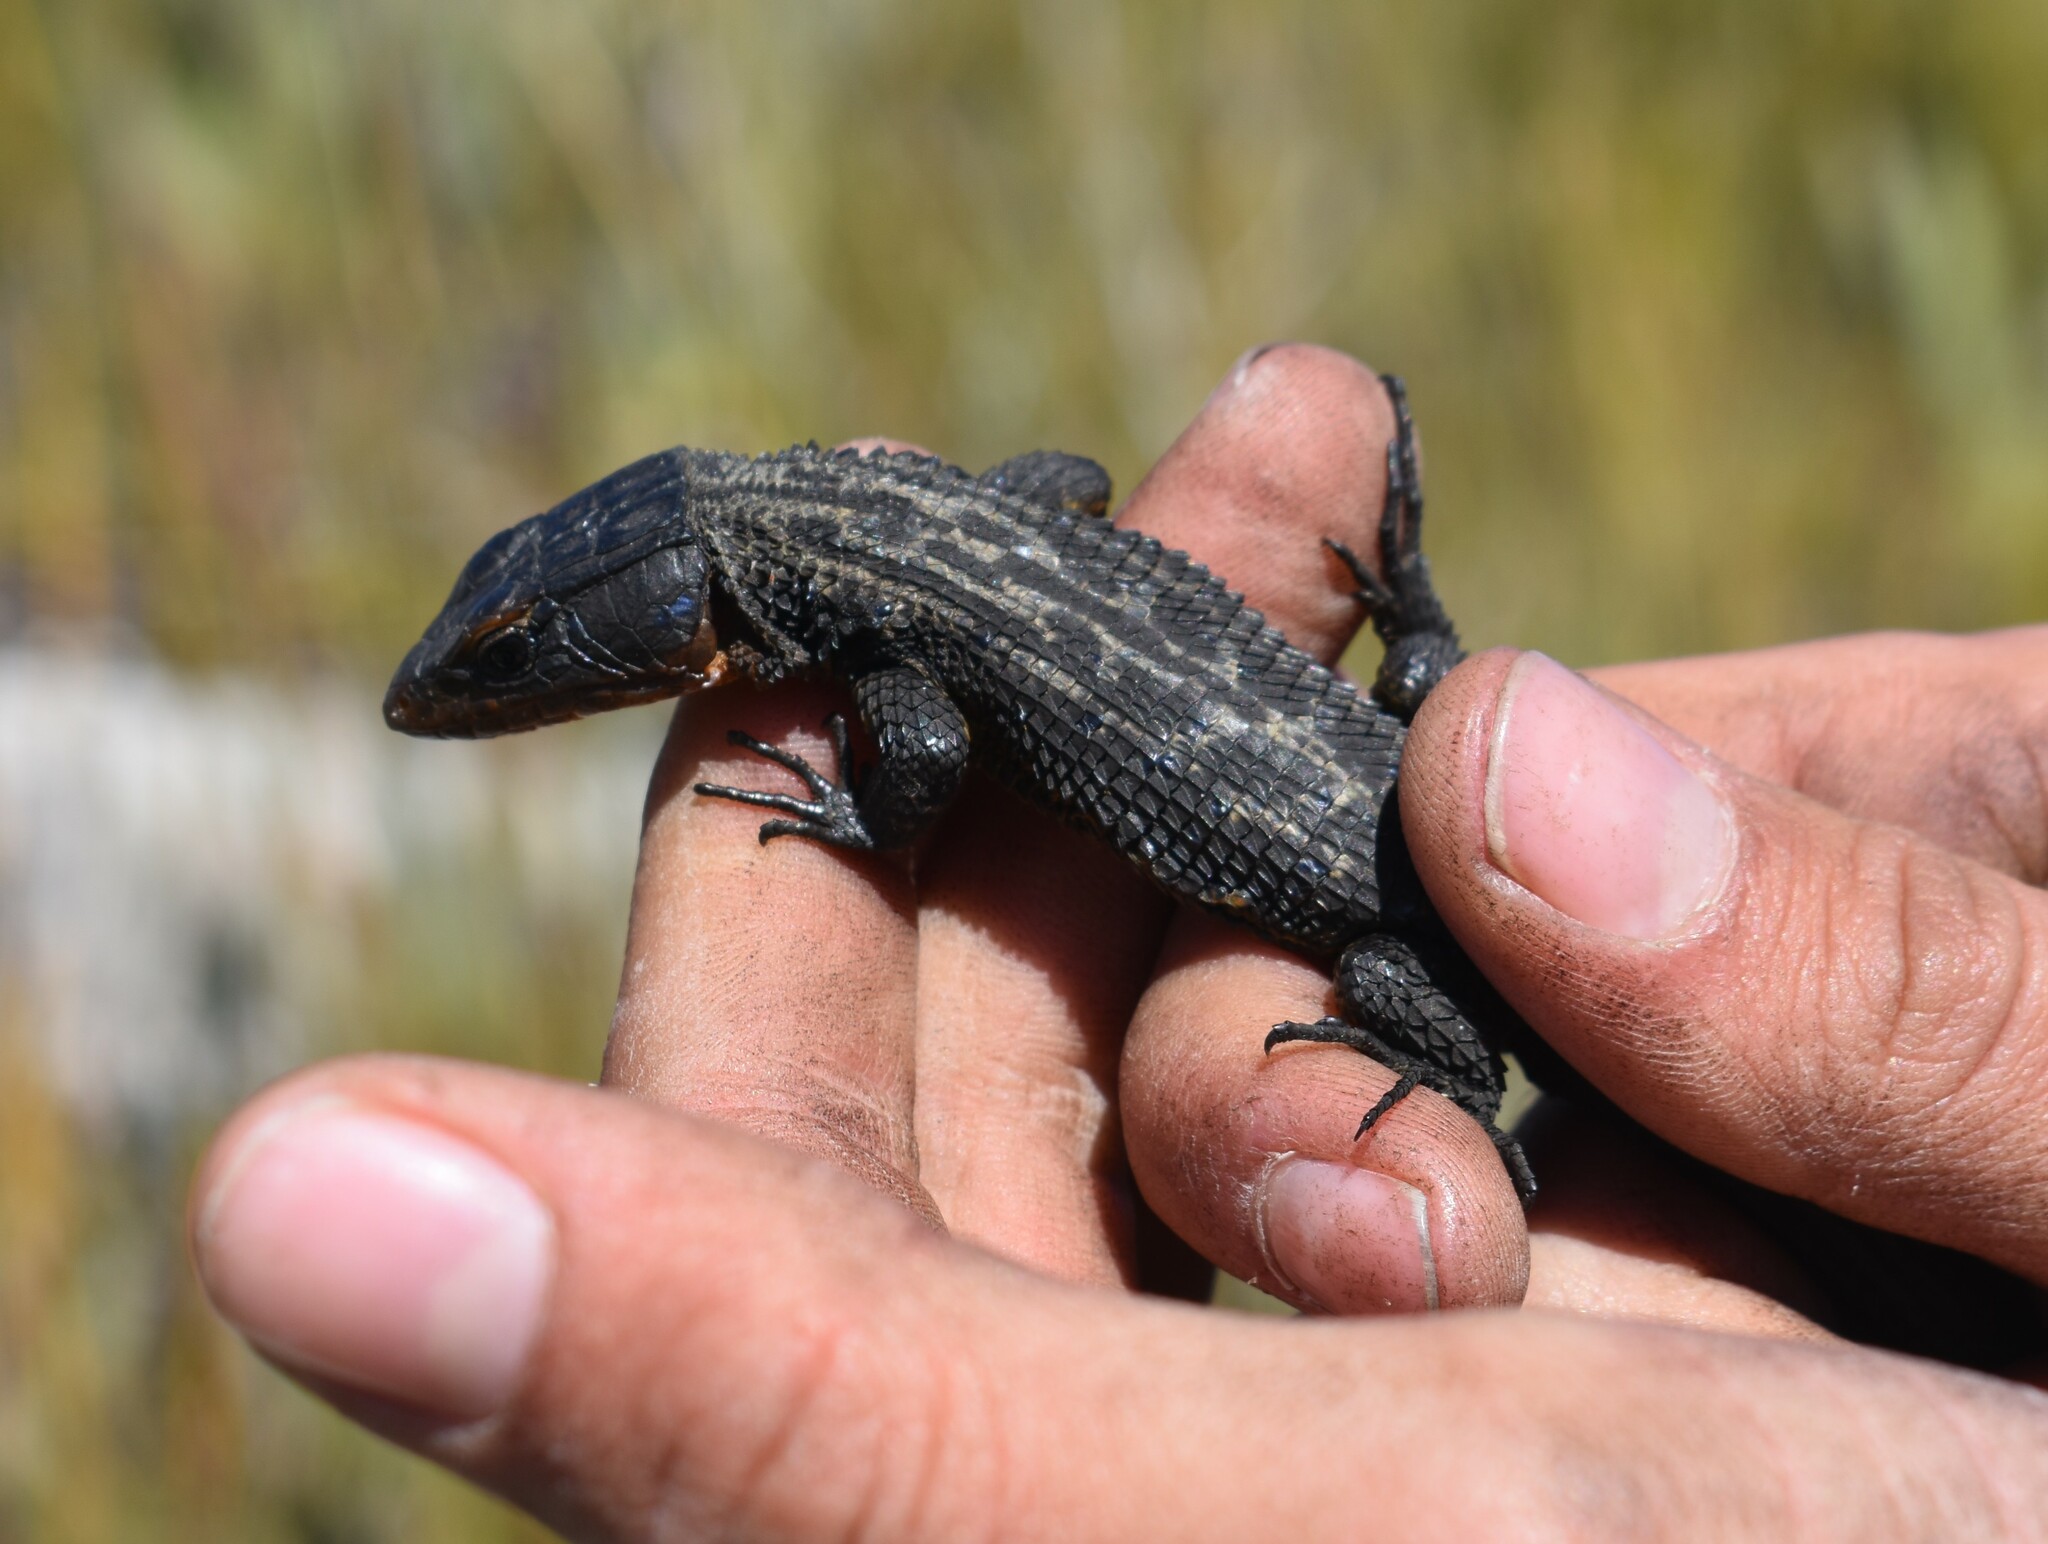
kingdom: Animalia
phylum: Chordata
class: Squamata
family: Cordylidae
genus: Ninurta
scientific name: Ninurta coeruleopunctatus
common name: Blue-spotted girdled lizard
